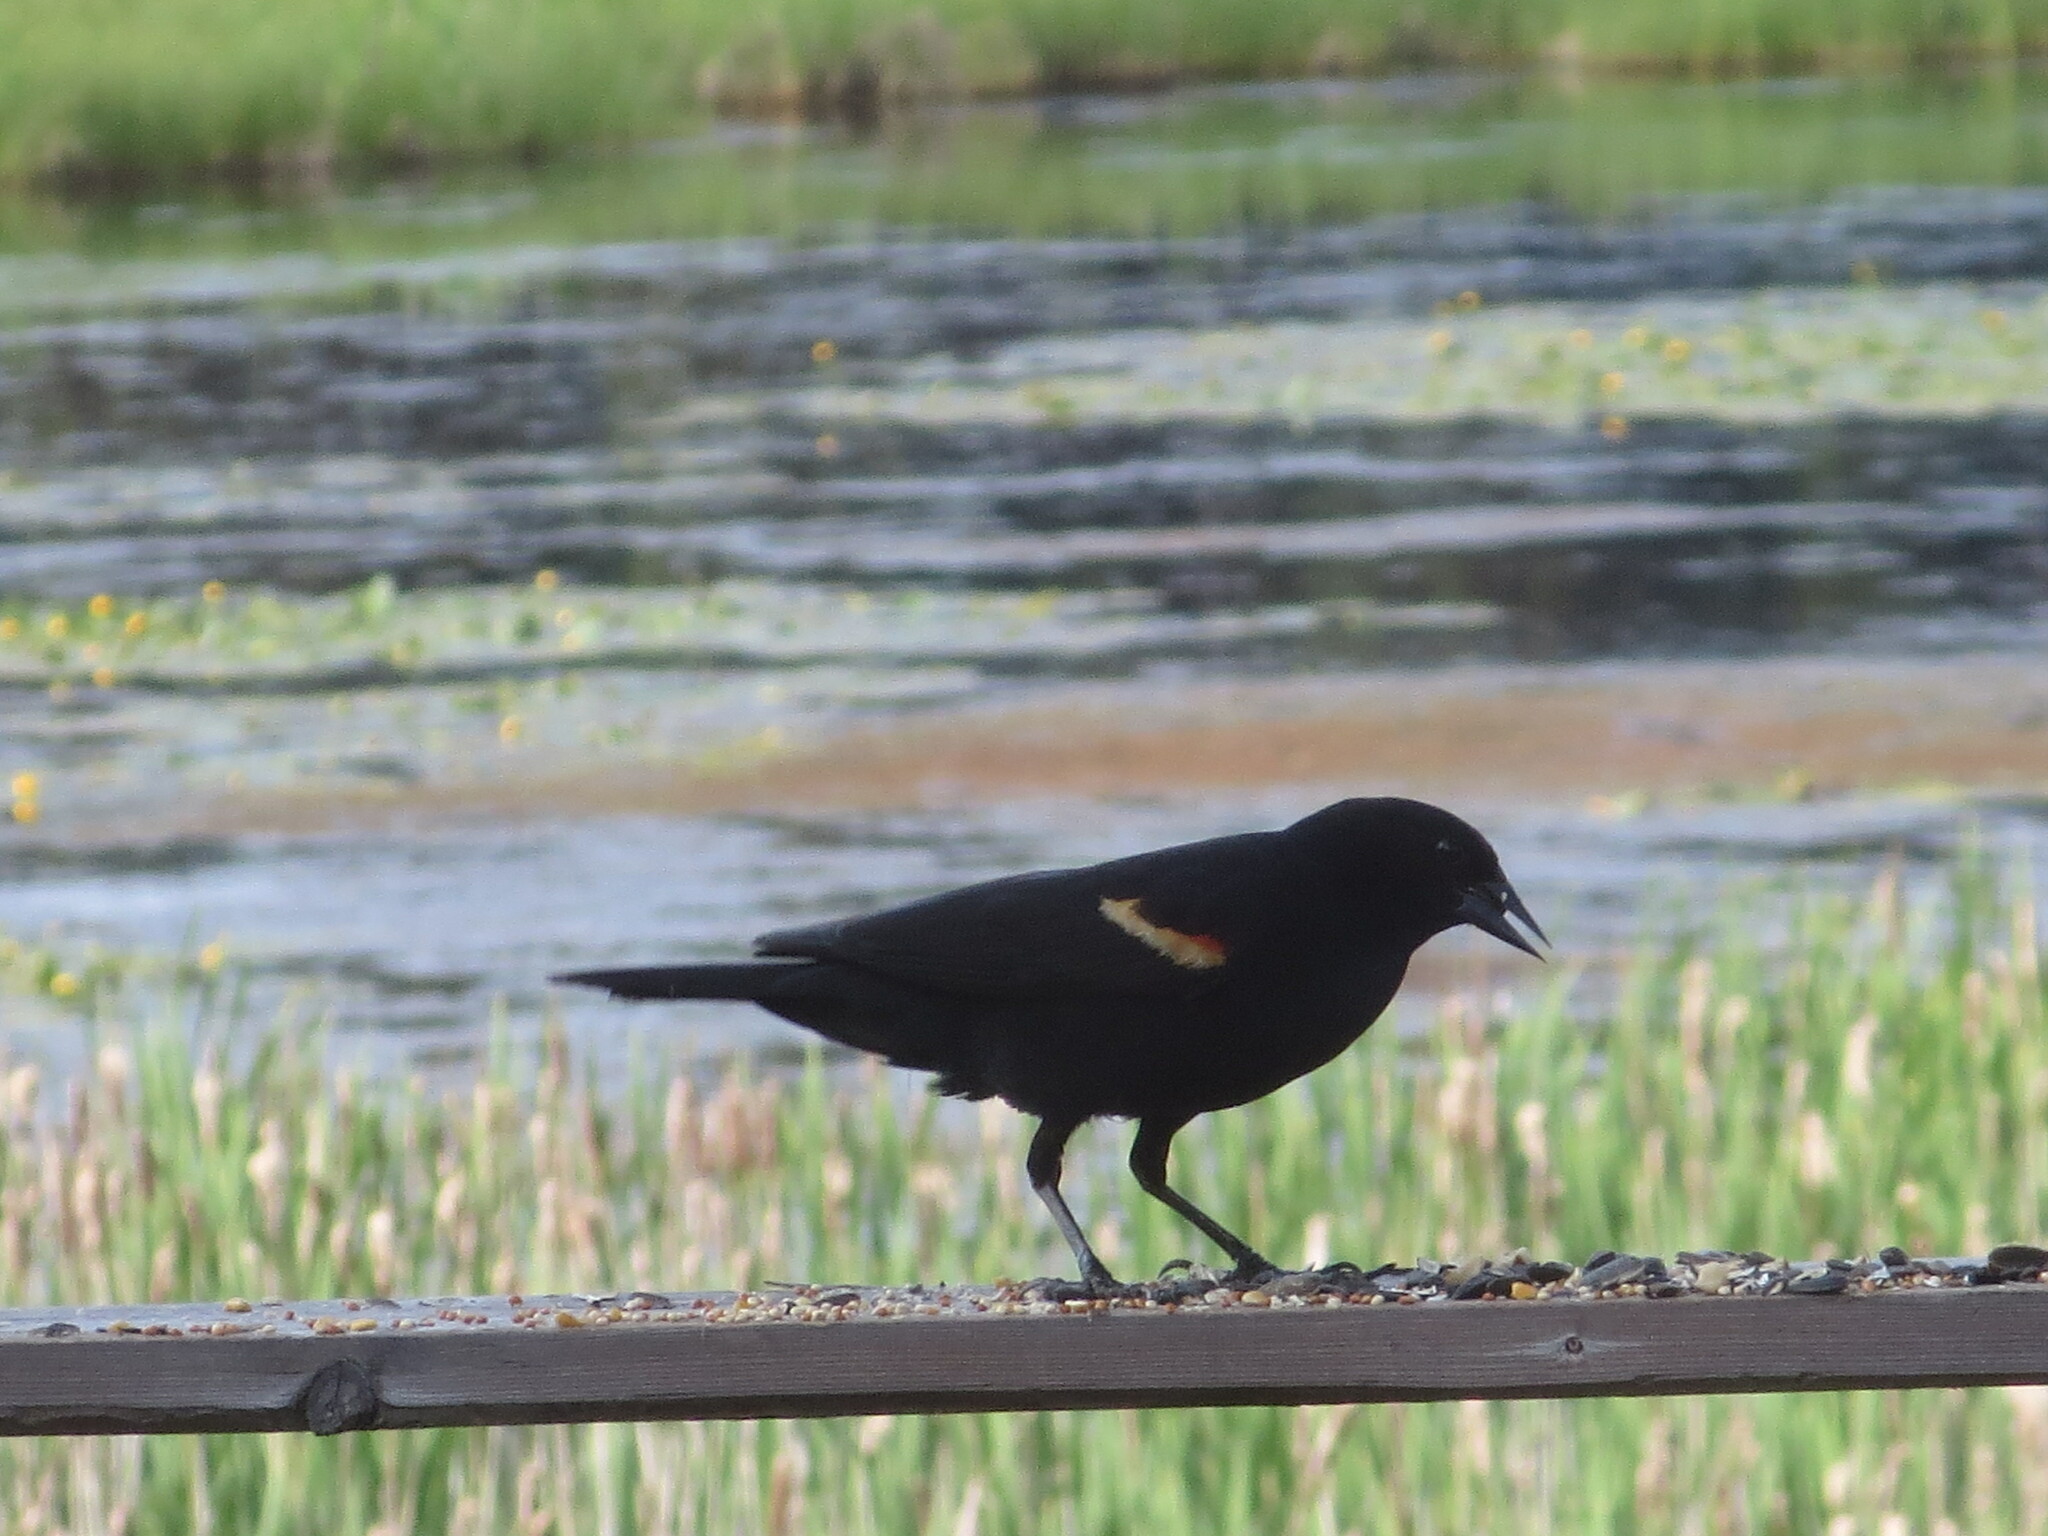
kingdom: Animalia
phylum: Chordata
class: Aves
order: Passeriformes
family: Icteridae
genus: Agelaius
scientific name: Agelaius phoeniceus
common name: Red-winged blackbird
